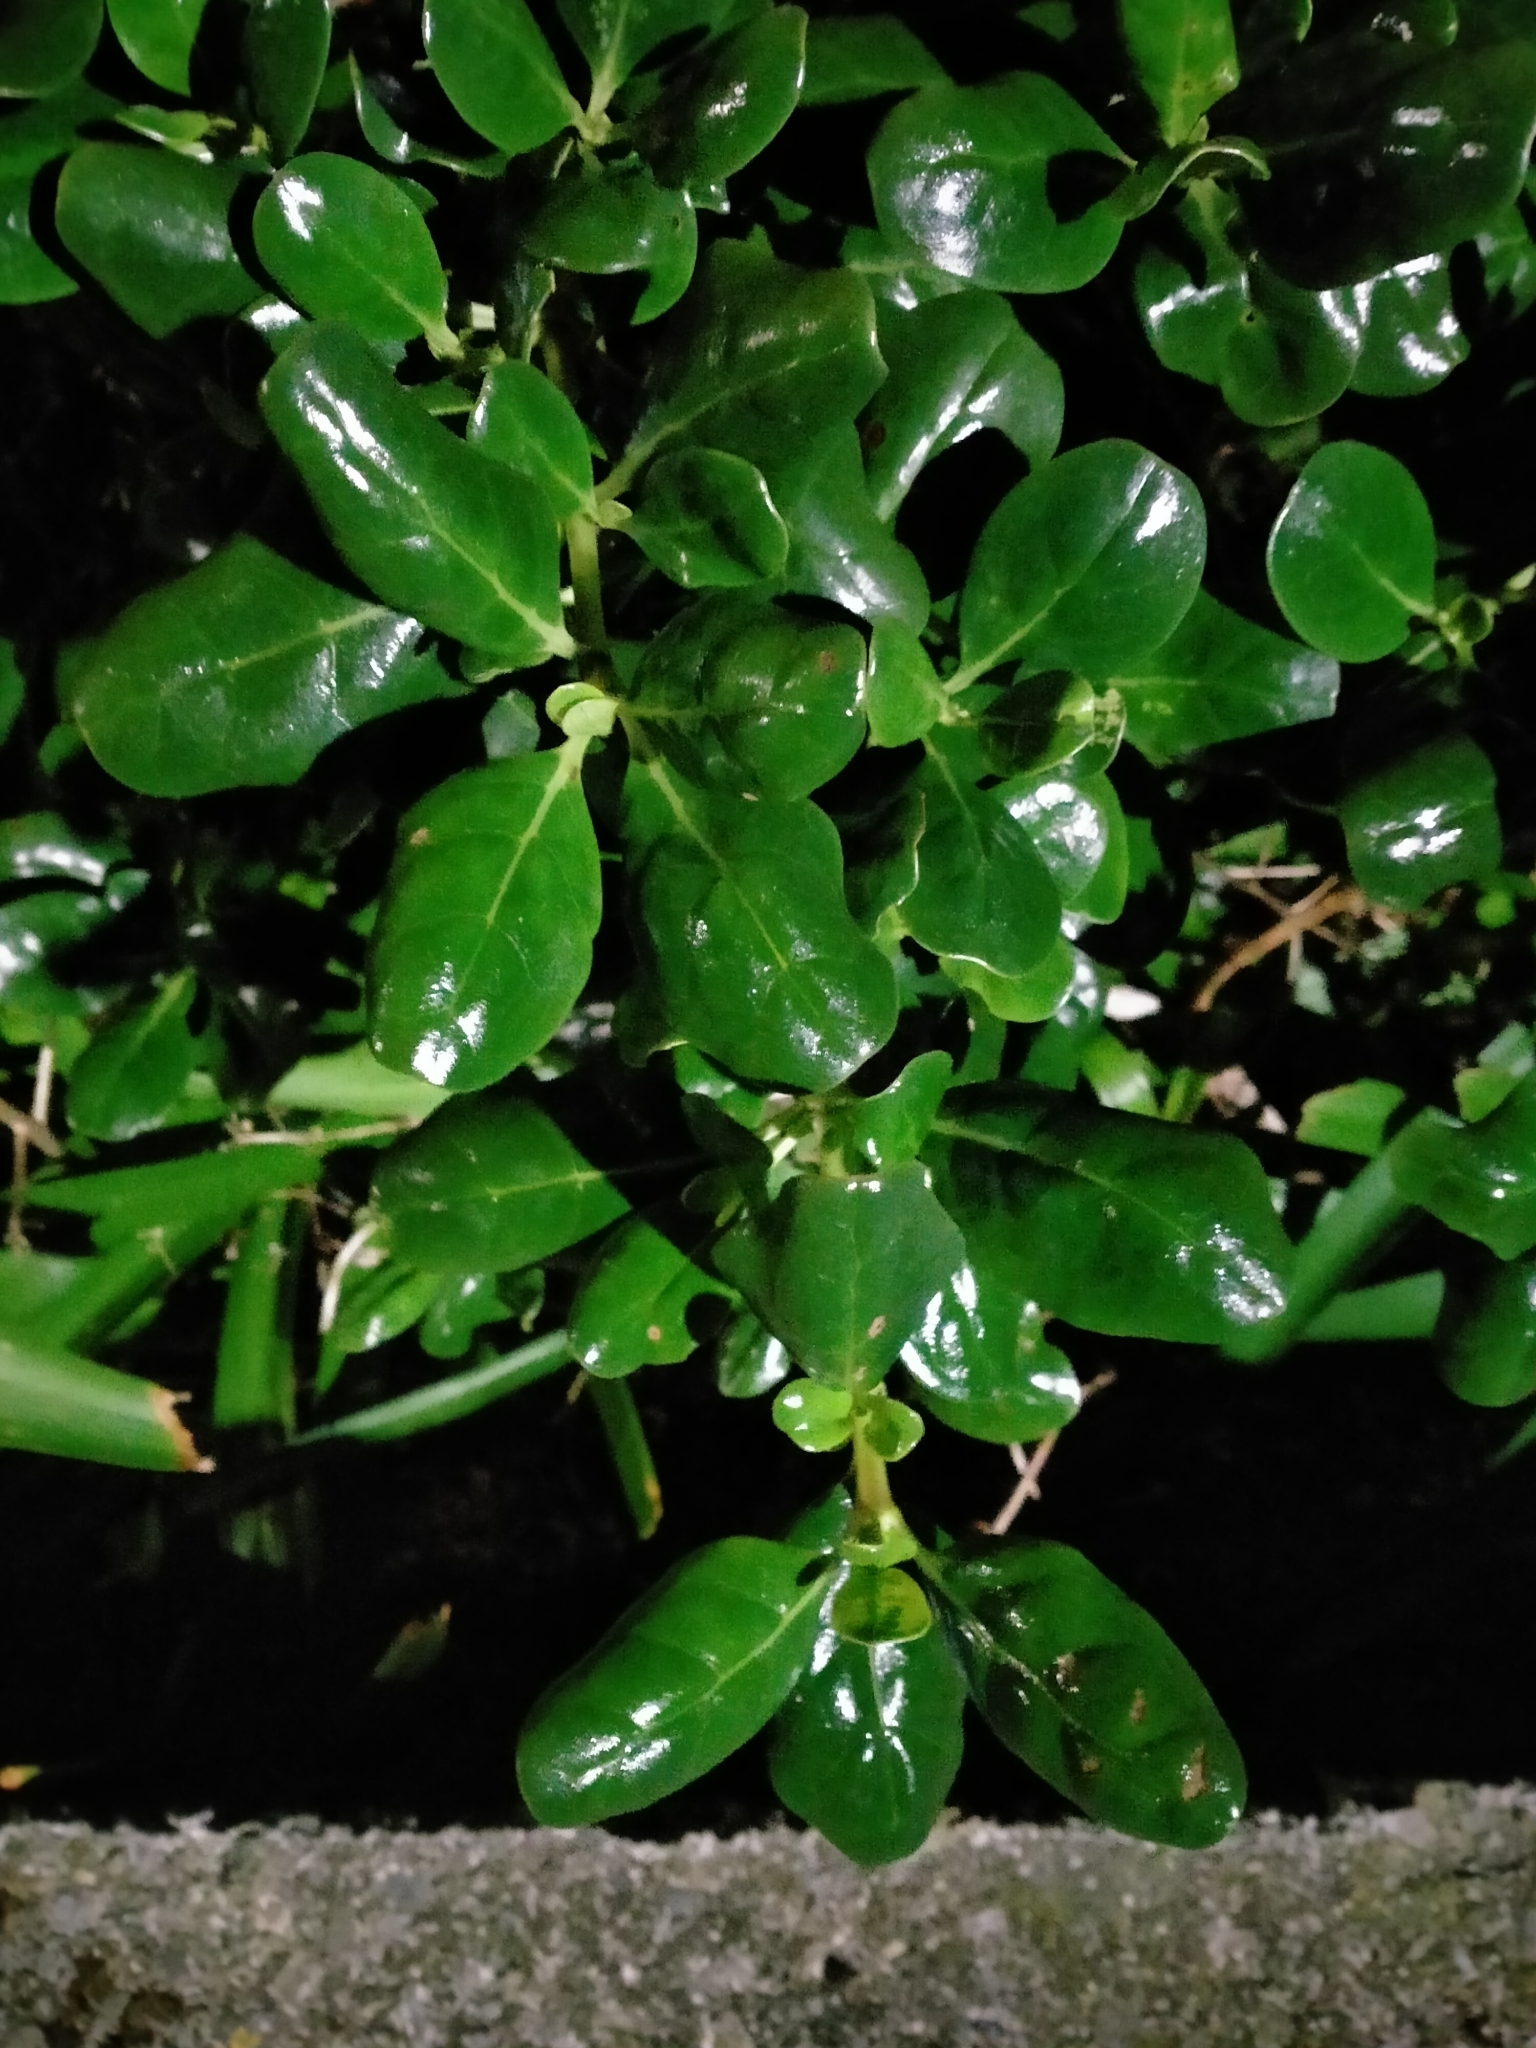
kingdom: Plantae
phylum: Tracheophyta
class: Magnoliopsida
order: Gentianales
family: Rubiaceae
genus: Coprosma
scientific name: Coprosma repens
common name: Tree bedstraw
